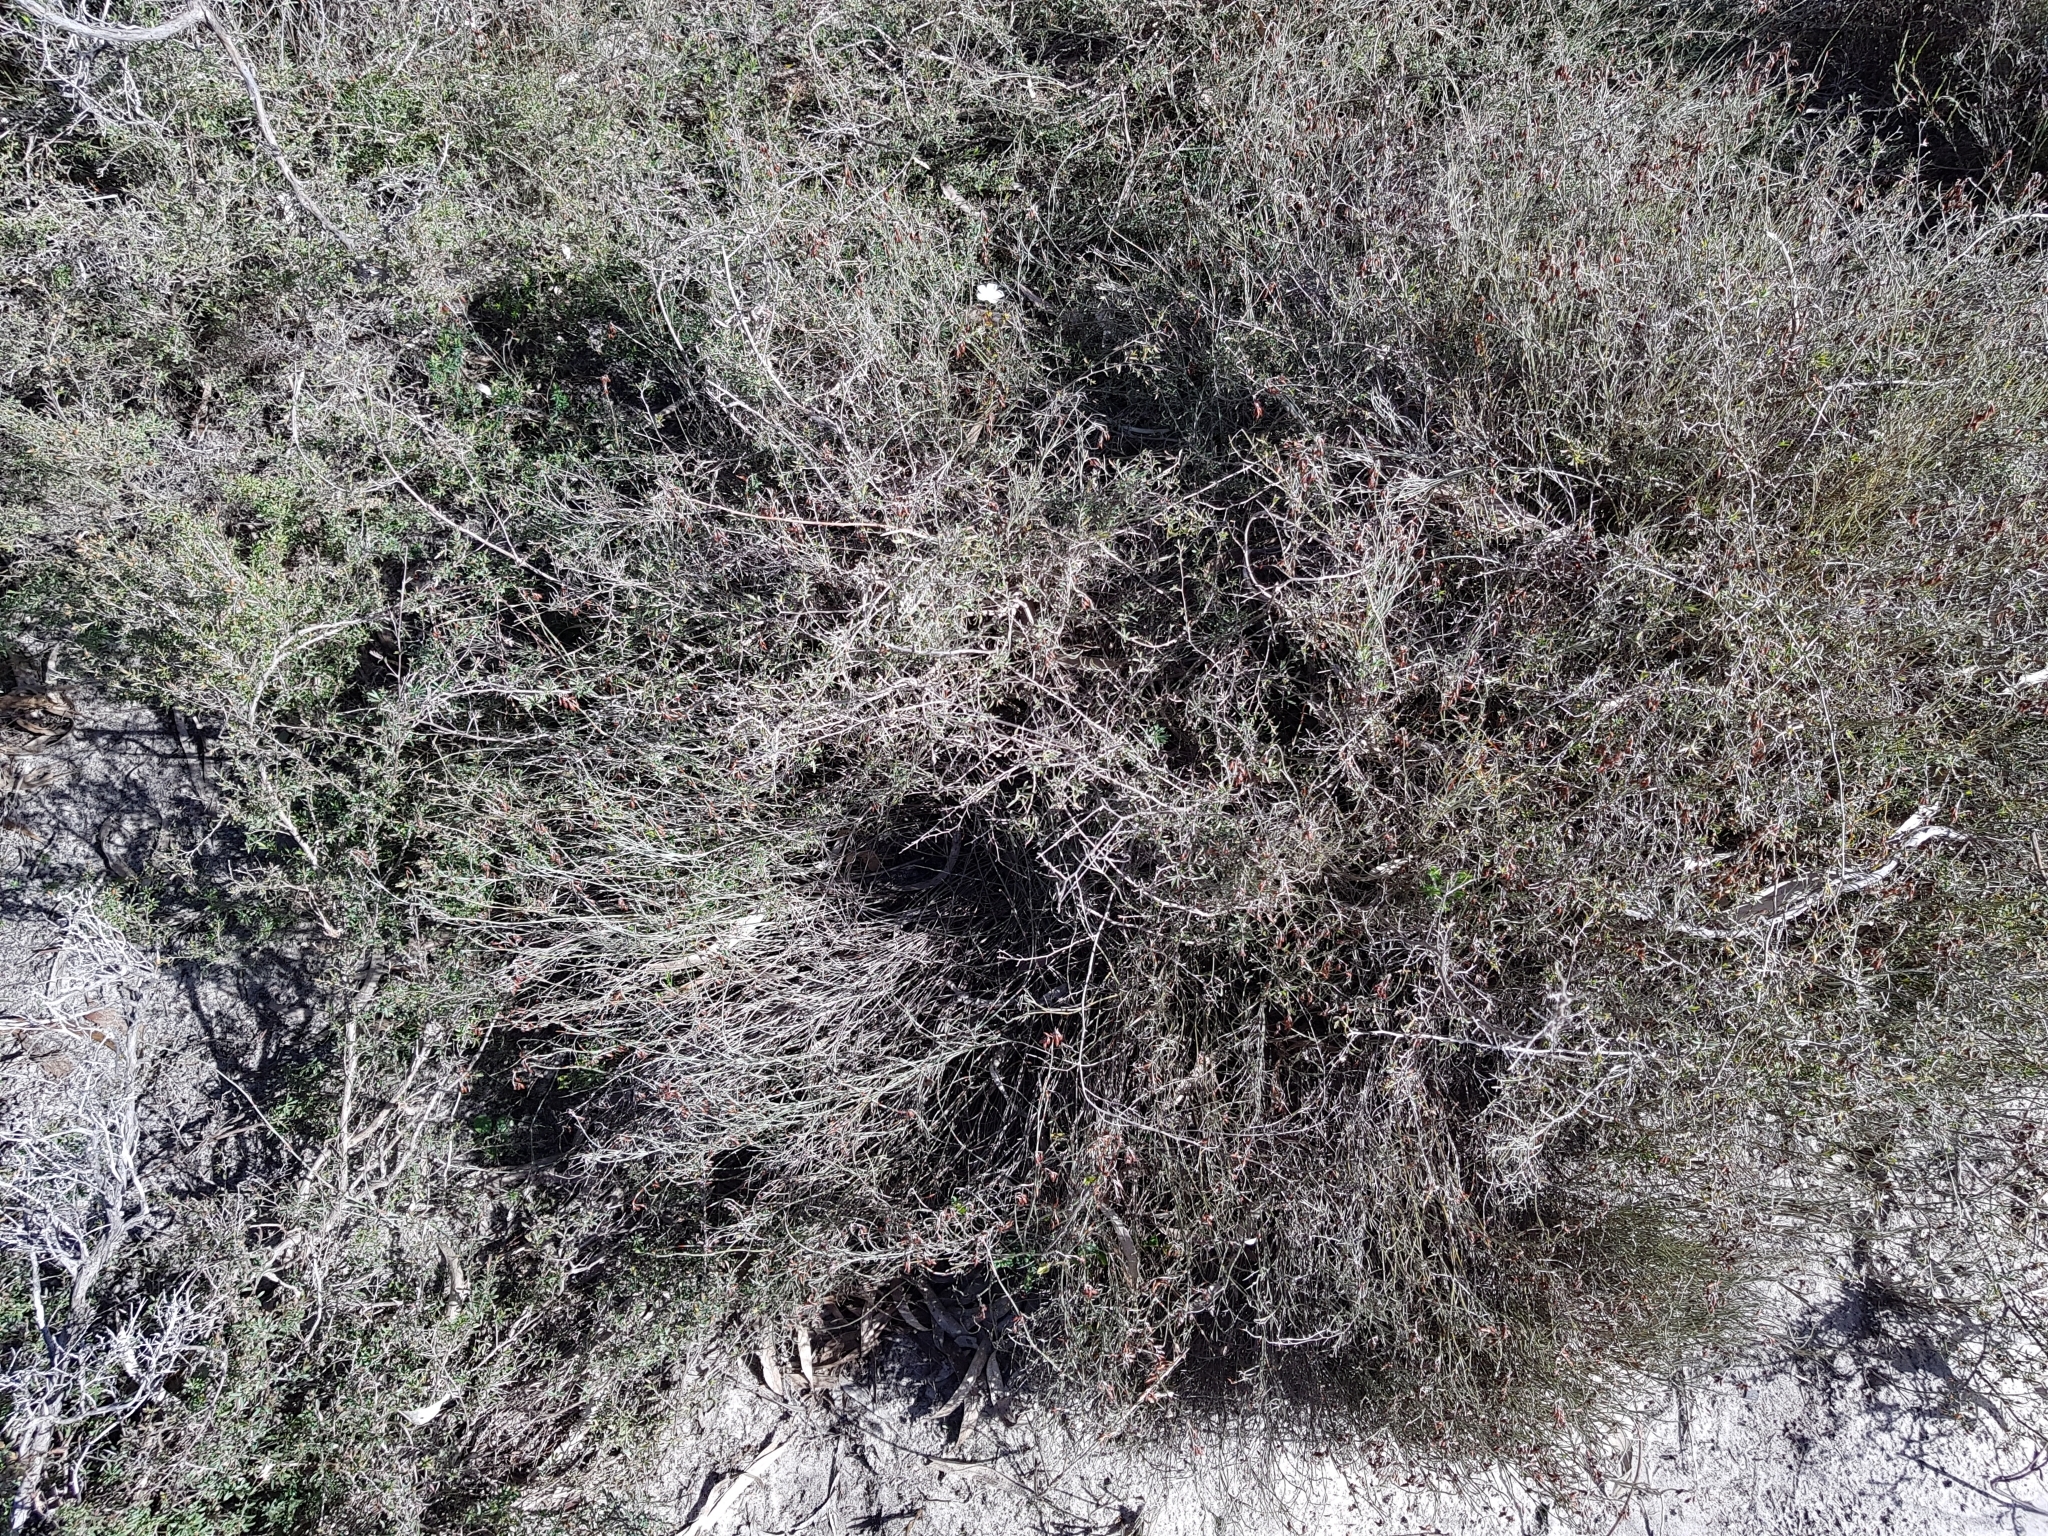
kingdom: Plantae
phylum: Tracheophyta
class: Magnoliopsida
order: Caryophyllales
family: Droseraceae
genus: Drosera
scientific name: Drosera planchonii
